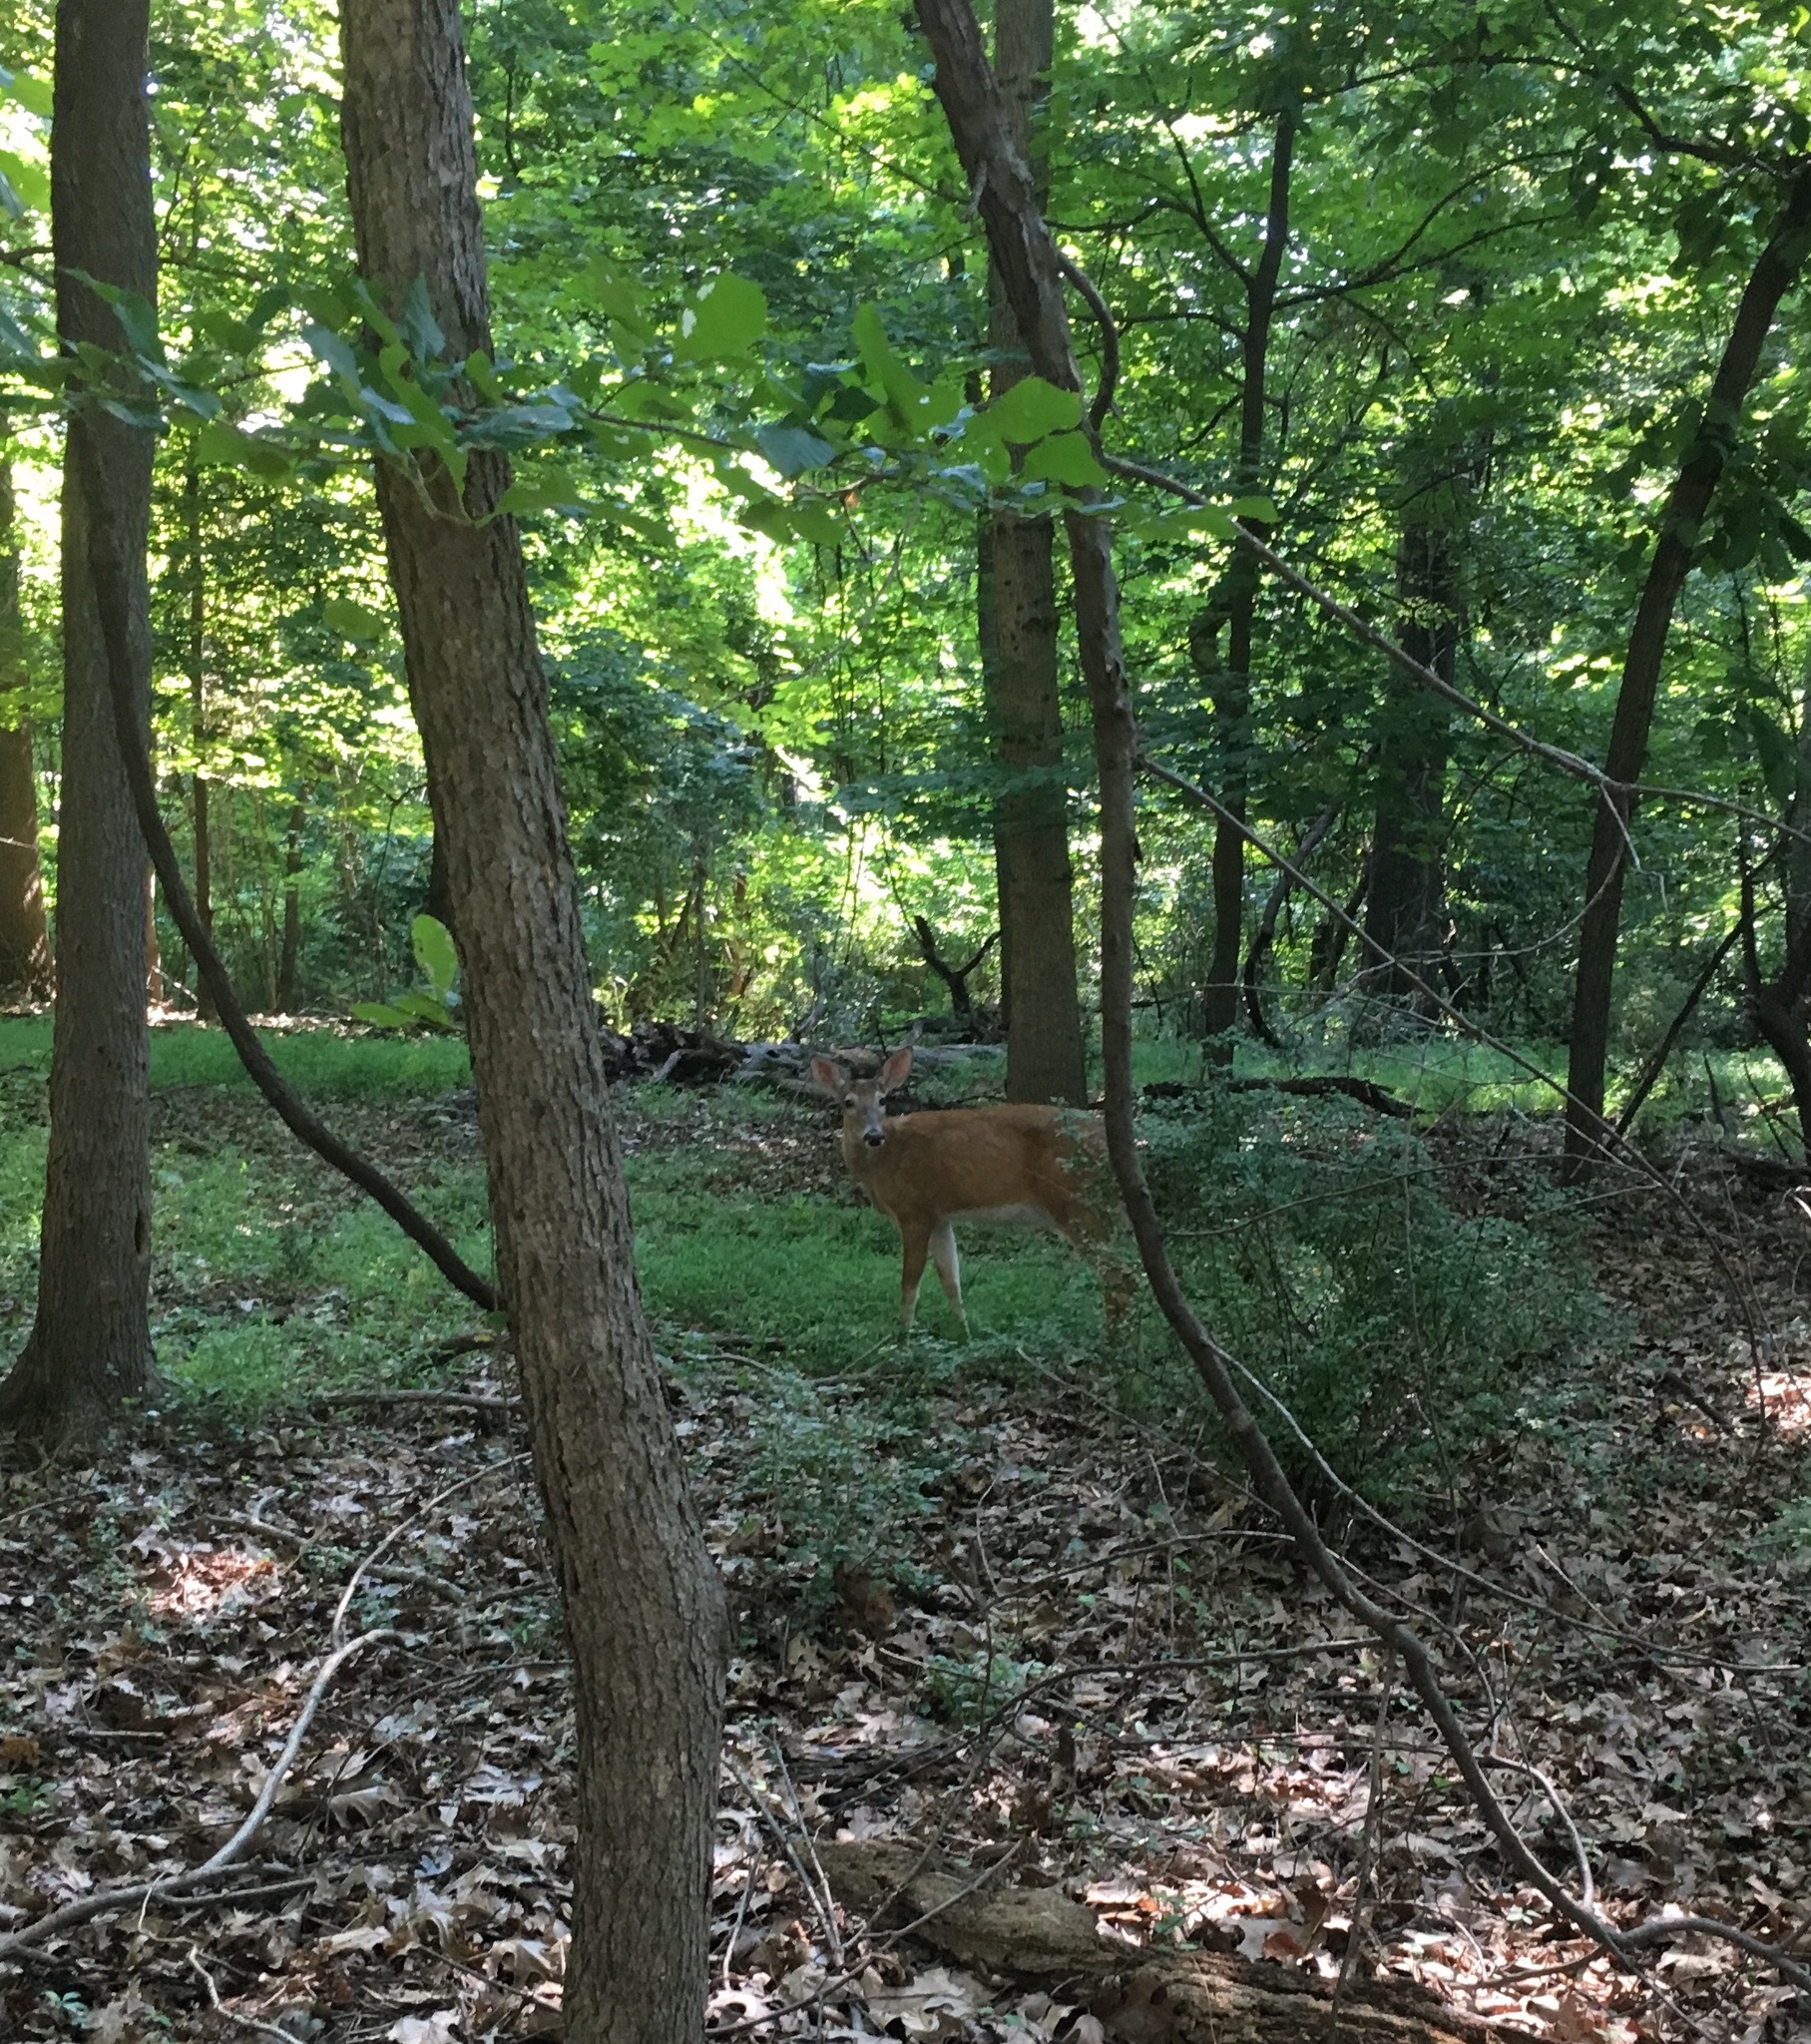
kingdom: Animalia
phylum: Chordata
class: Mammalia
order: Artiodactyla
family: Cervidae
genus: Odocoileus
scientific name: Odocoileus virginianus
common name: White-tailed deer
